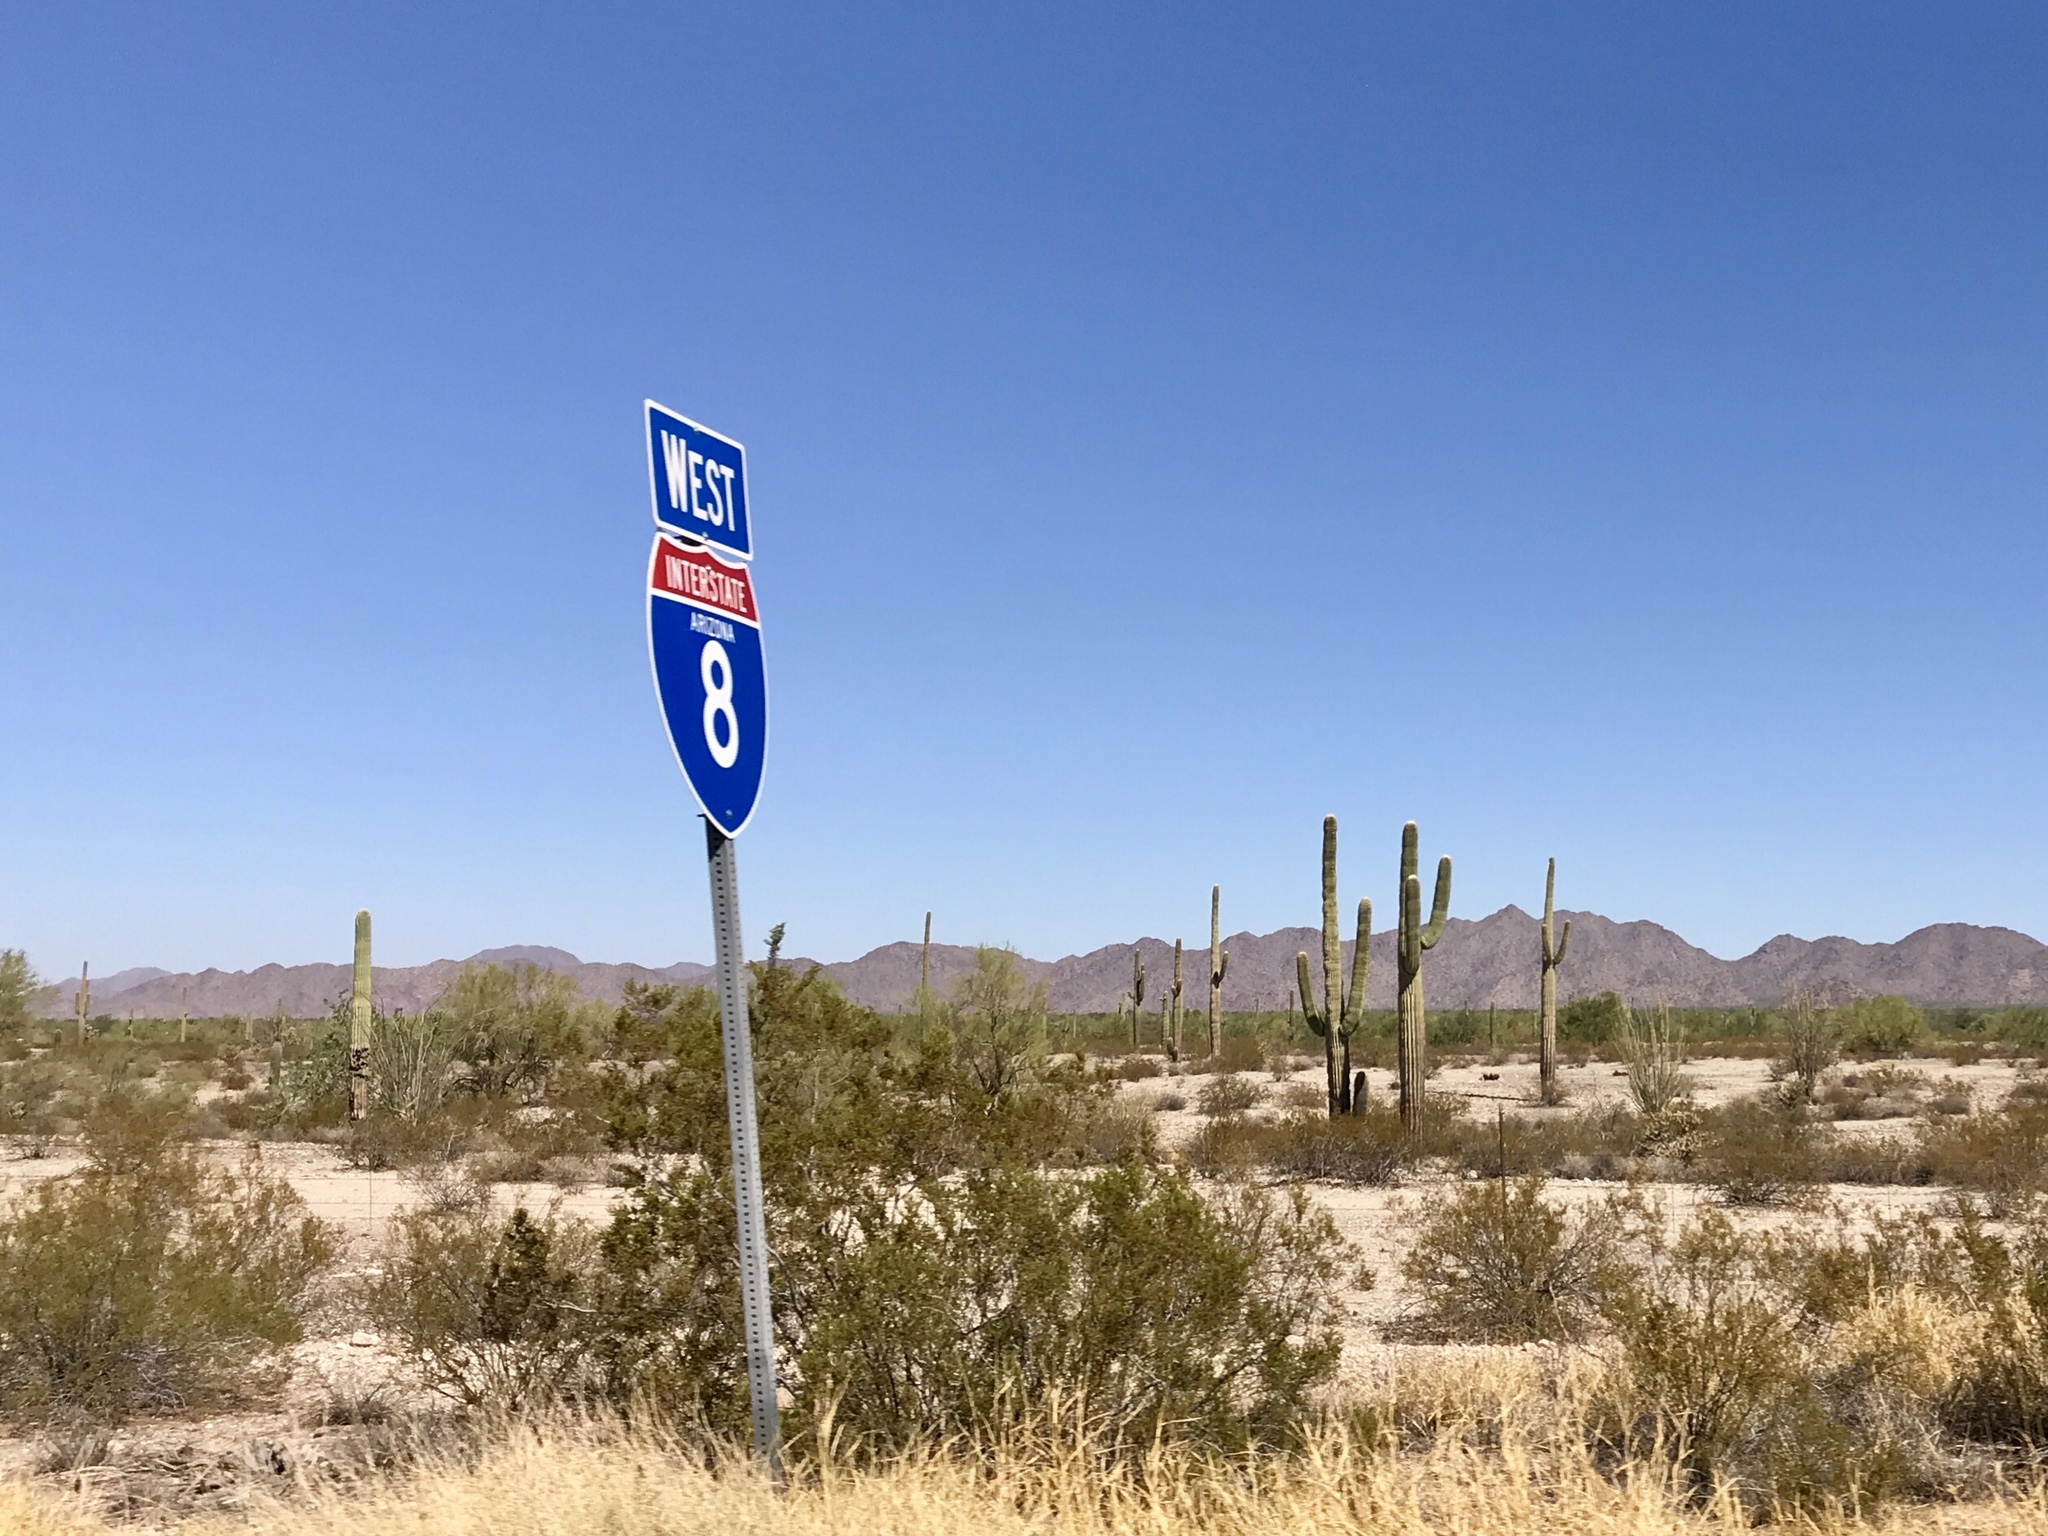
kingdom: Plantae
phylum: Tracheophyta
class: Magnoliopsida
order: Caryophyllales
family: Cactaceae
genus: Carnegiea
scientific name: Carnegiea gigantea
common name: Saguaro
